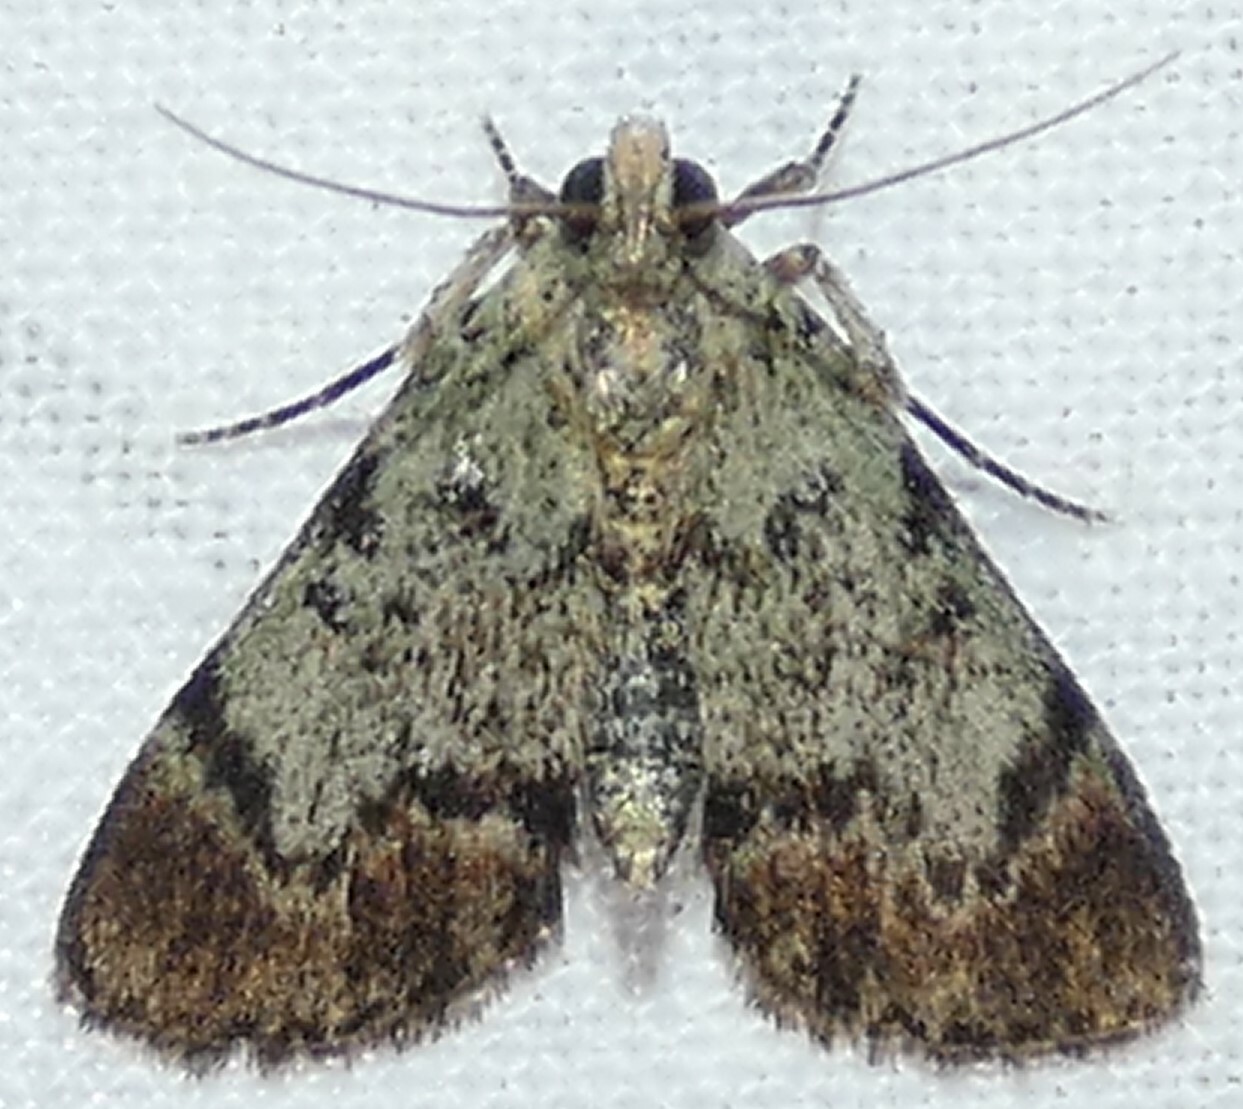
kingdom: Animalia
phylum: Arthropoda
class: Insecta
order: Lepidoptera
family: Pyralidae
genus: Epipaschia
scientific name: Epipaschia superatalis
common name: Dimorphic macalla moth
